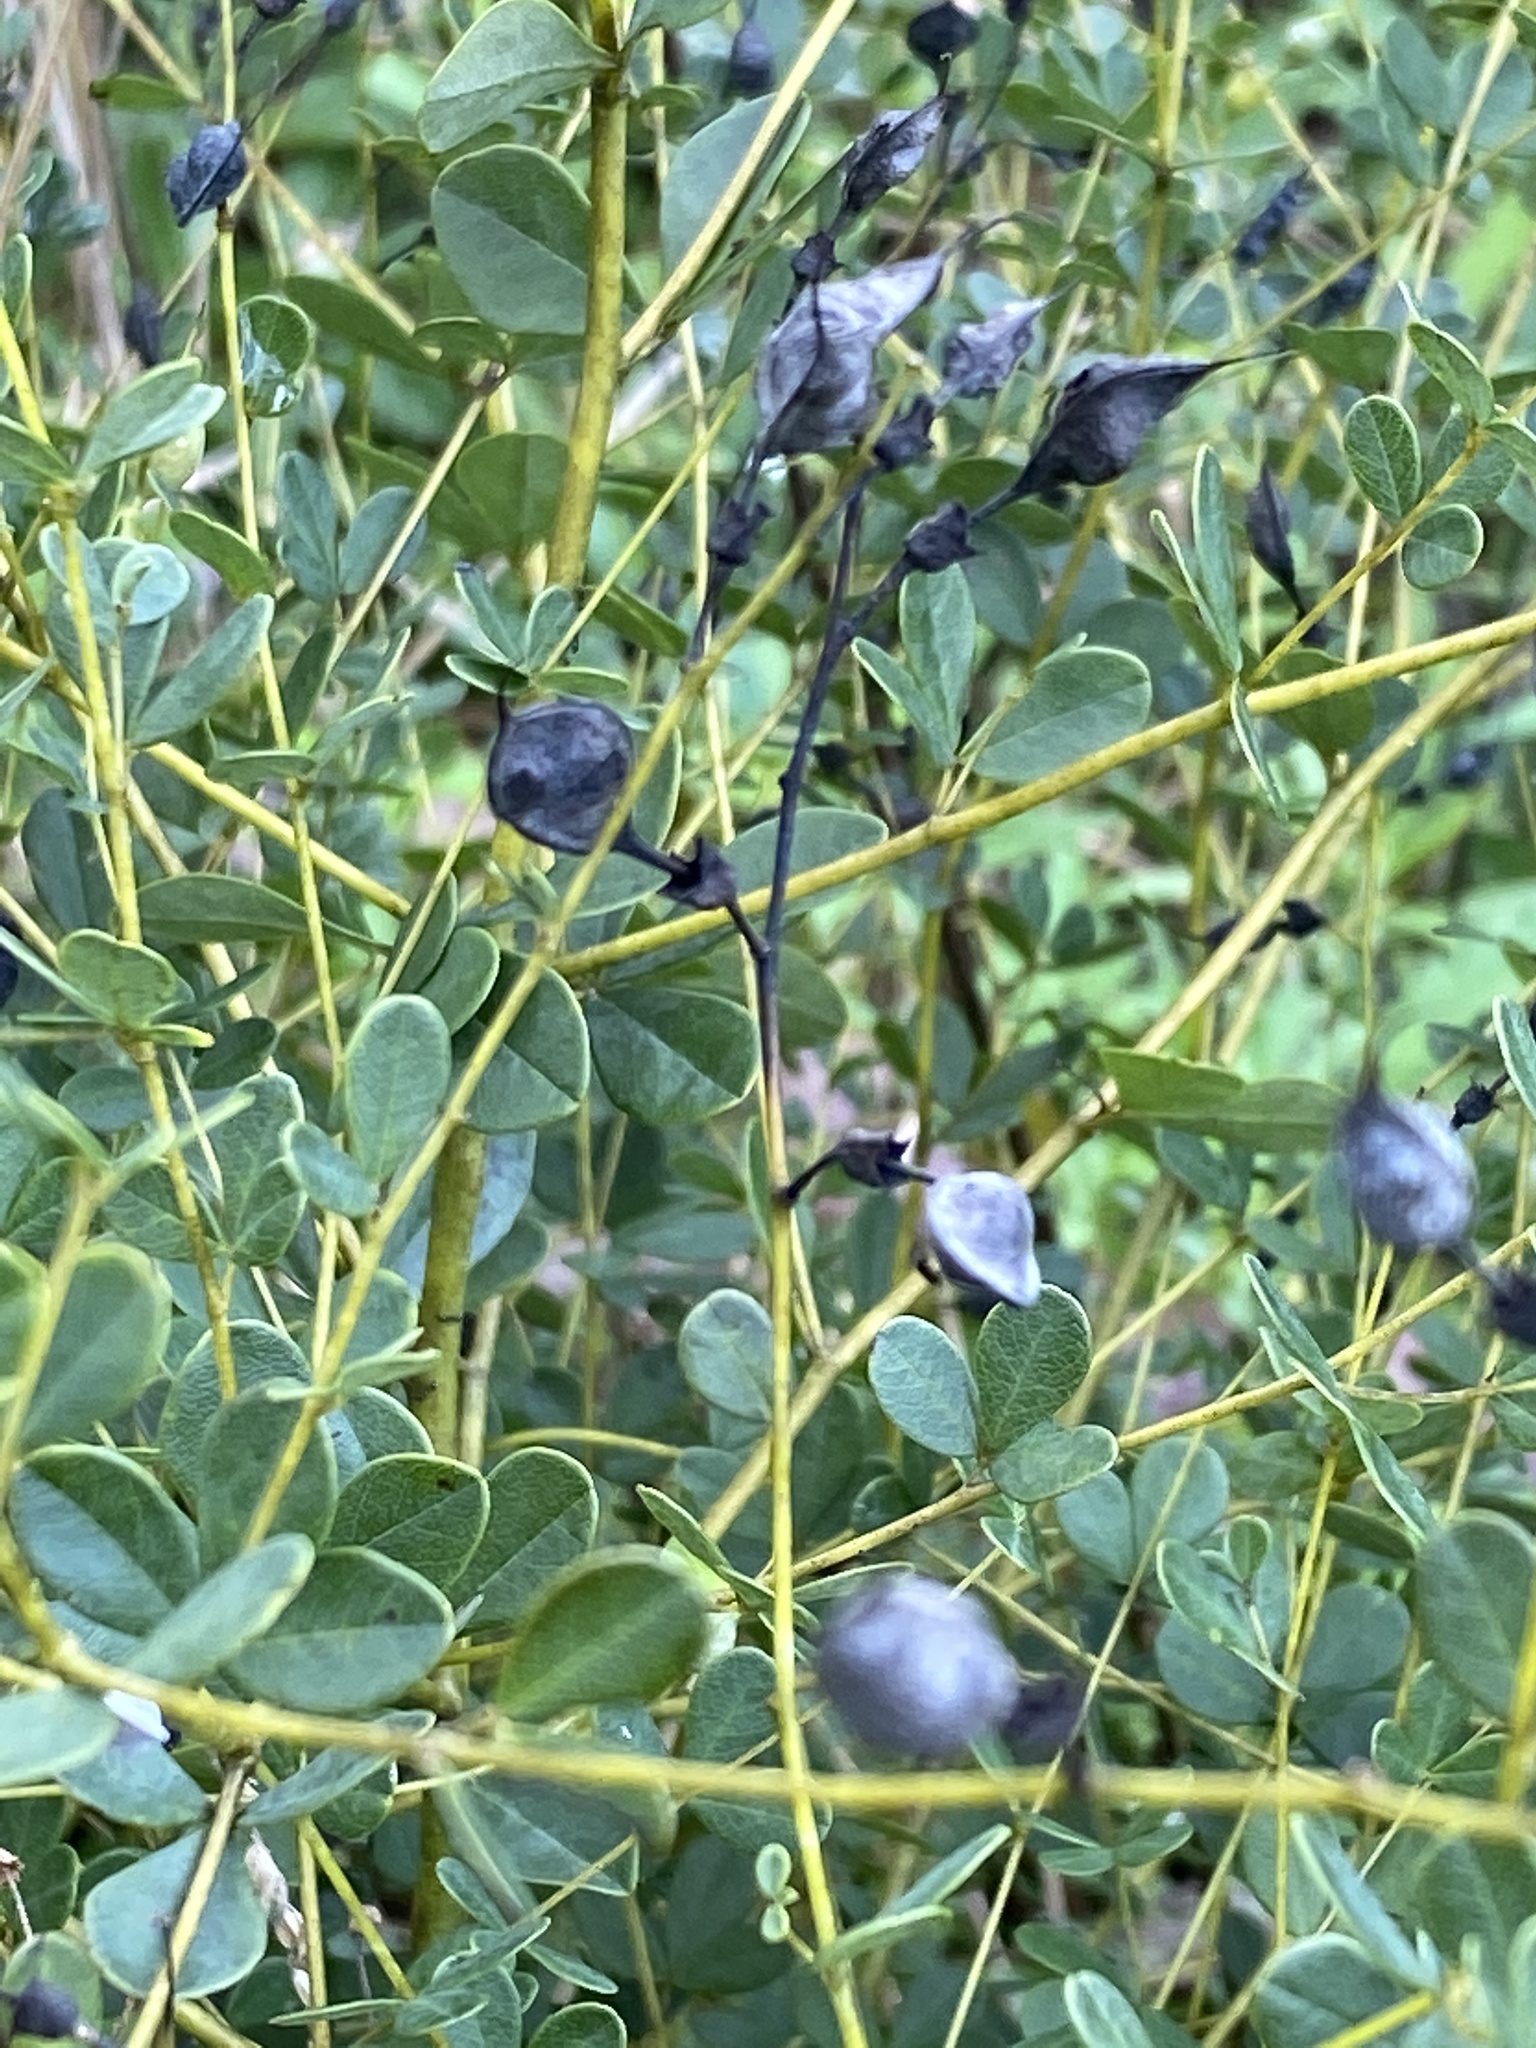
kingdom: Plantae
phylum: Tracheophyta
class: Magnoliopsida
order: Fabales
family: Fabaceae
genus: Baptisia
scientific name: Baptisia tinctoria
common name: Wild indigo
